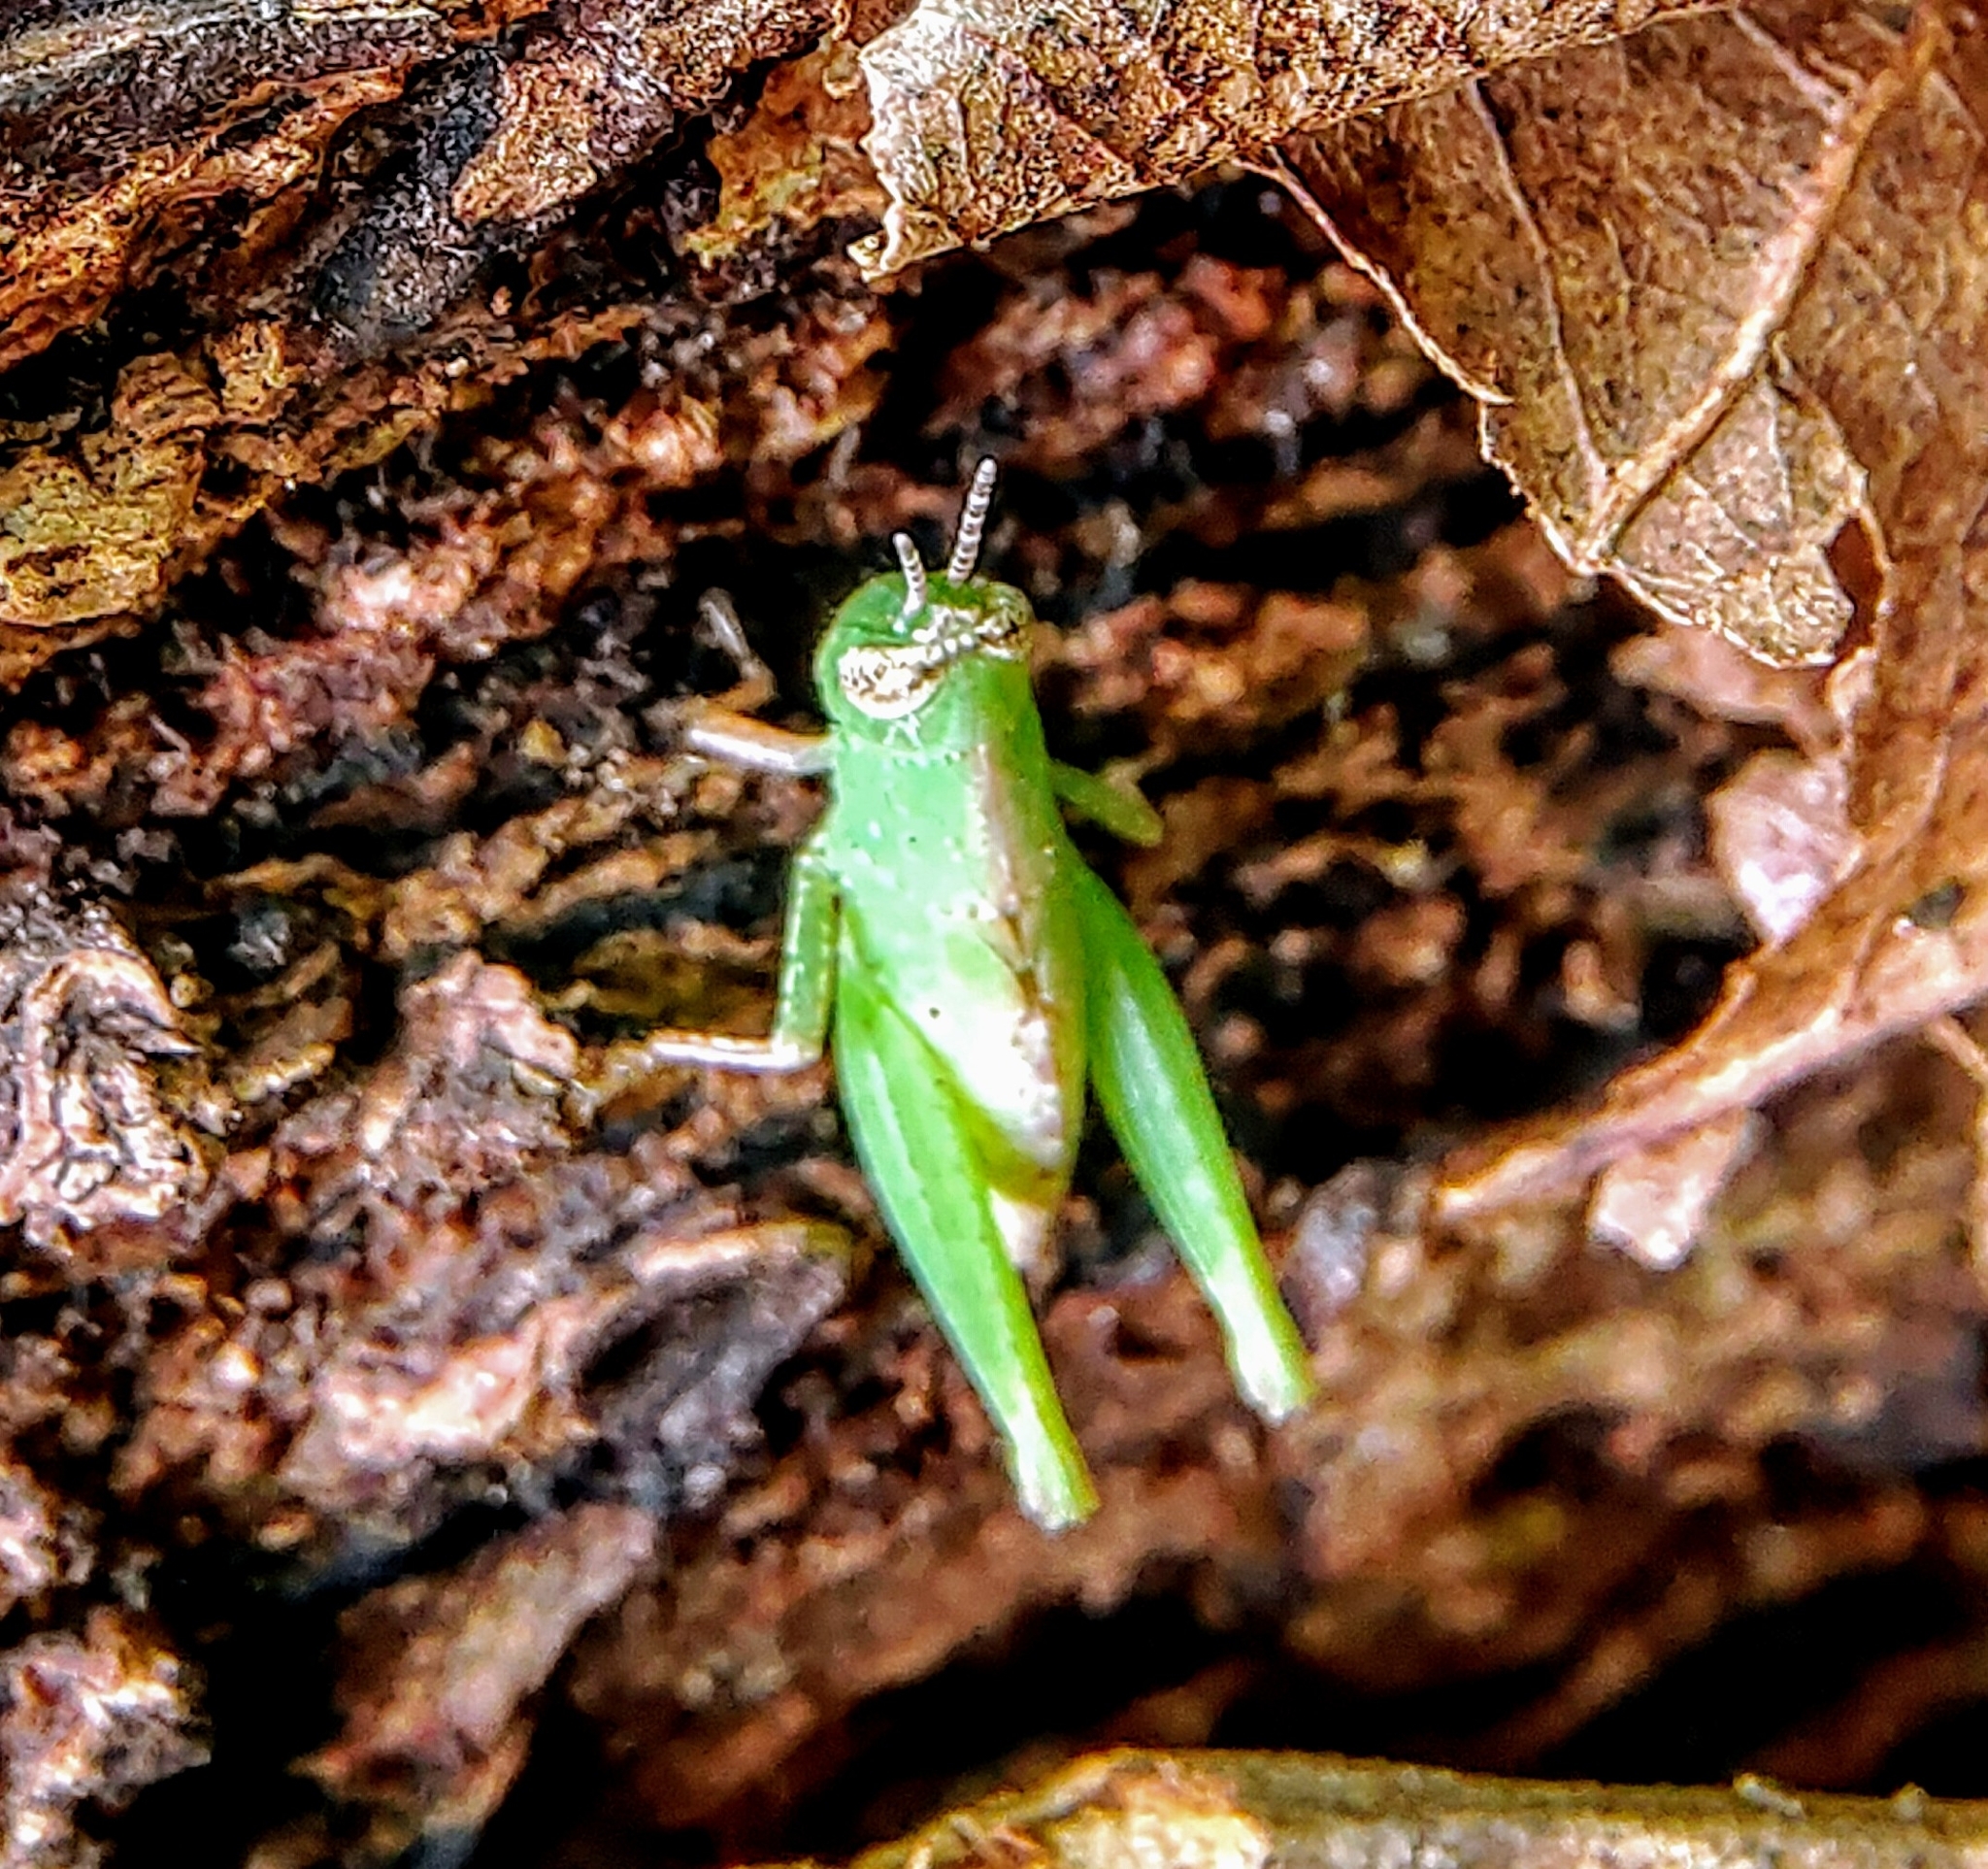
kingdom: Animalia
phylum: Arthropoda
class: Insecta
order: Orthoptera
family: Acrididae
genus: Pseudoxya
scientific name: Pseudoxya diminuta
